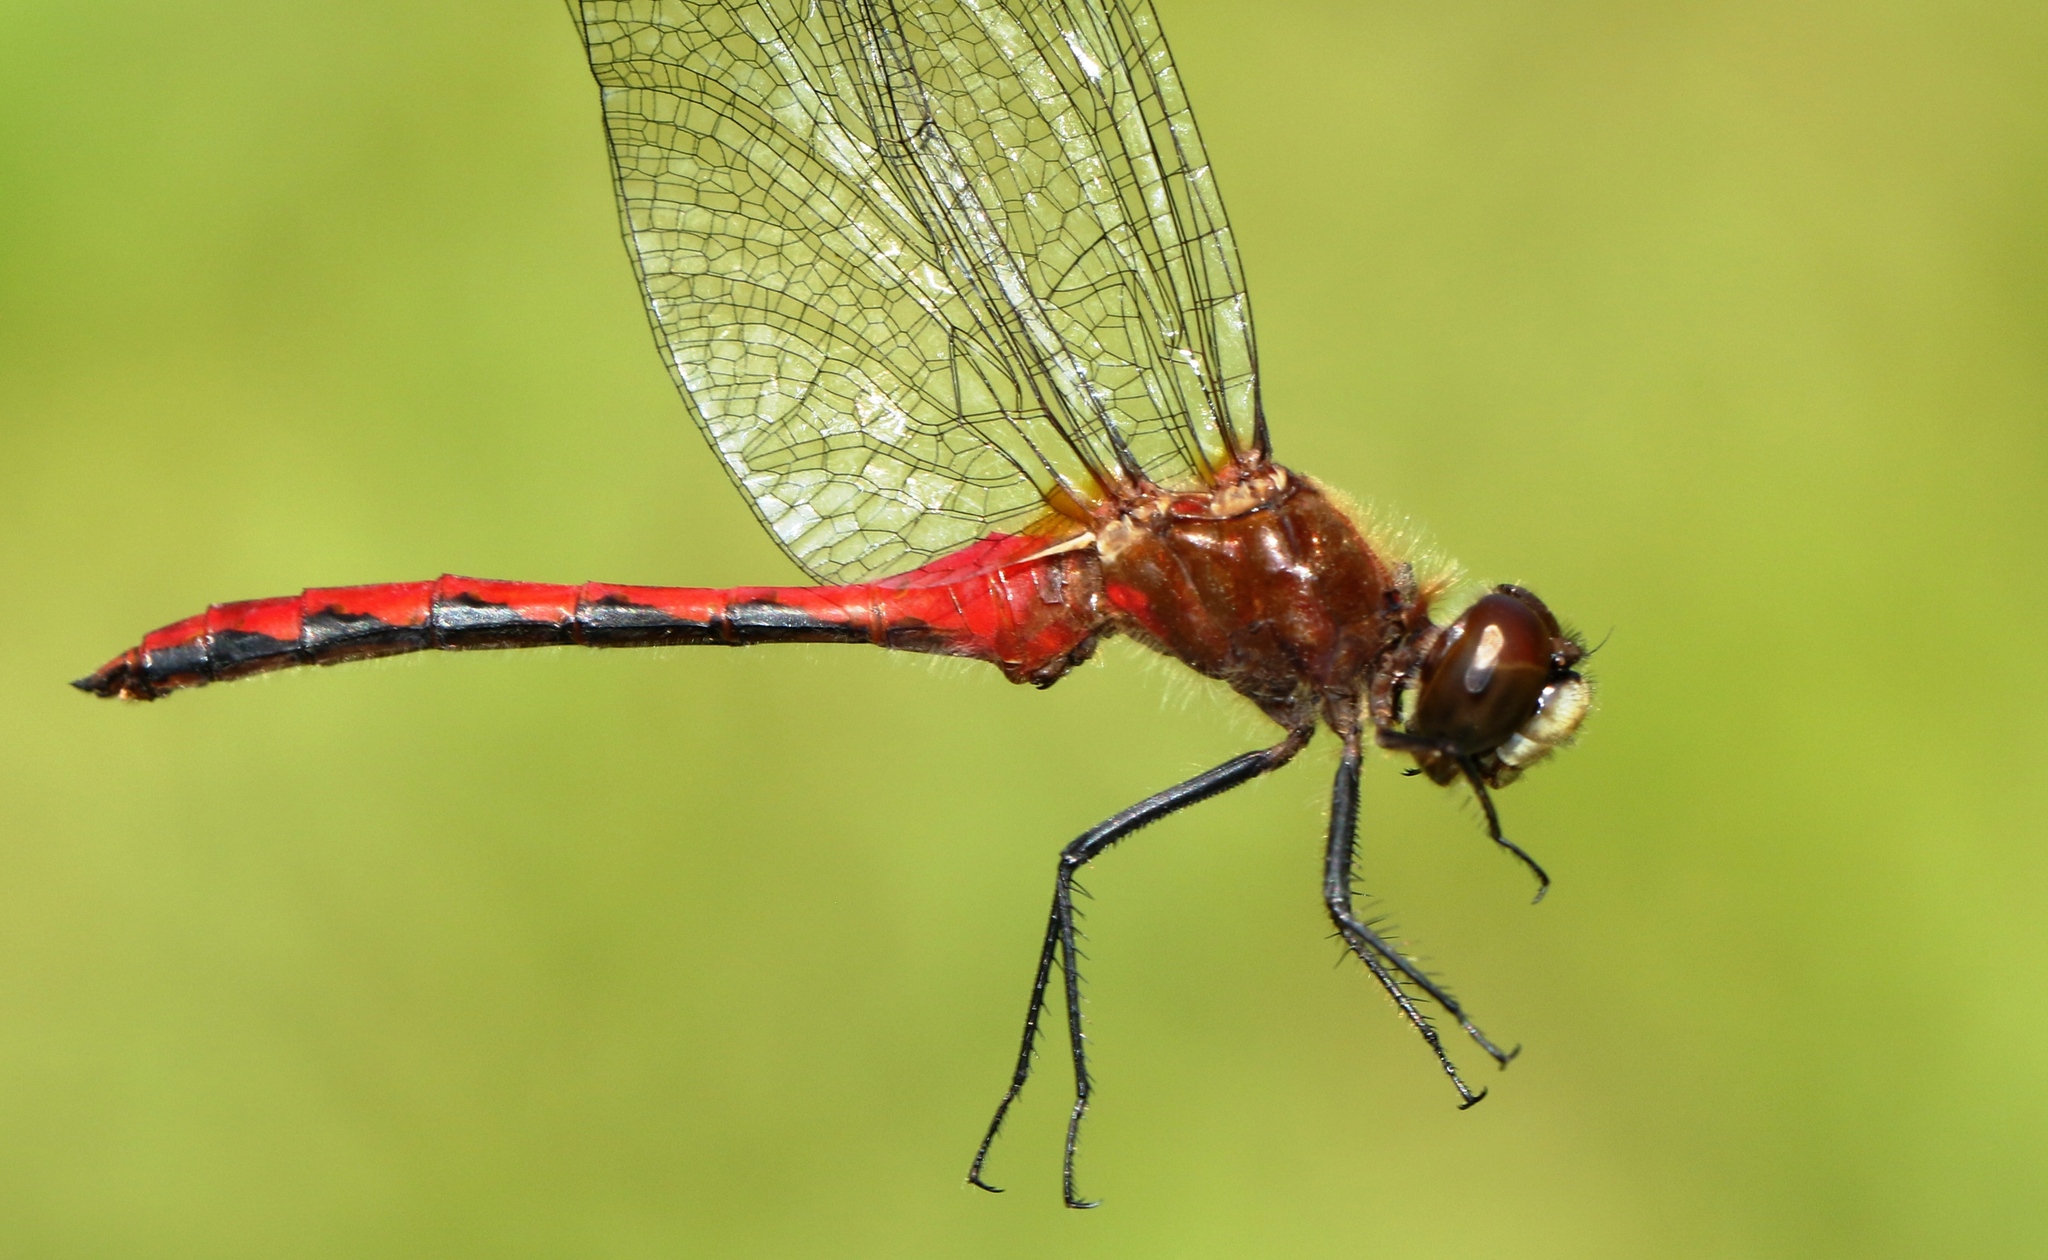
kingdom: Animalia
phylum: Arthropoda
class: Insecta
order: Odonata
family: Libellulidae
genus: Sympetrum
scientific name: Sympetrum obtrusum
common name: White-faced meadowhawk
